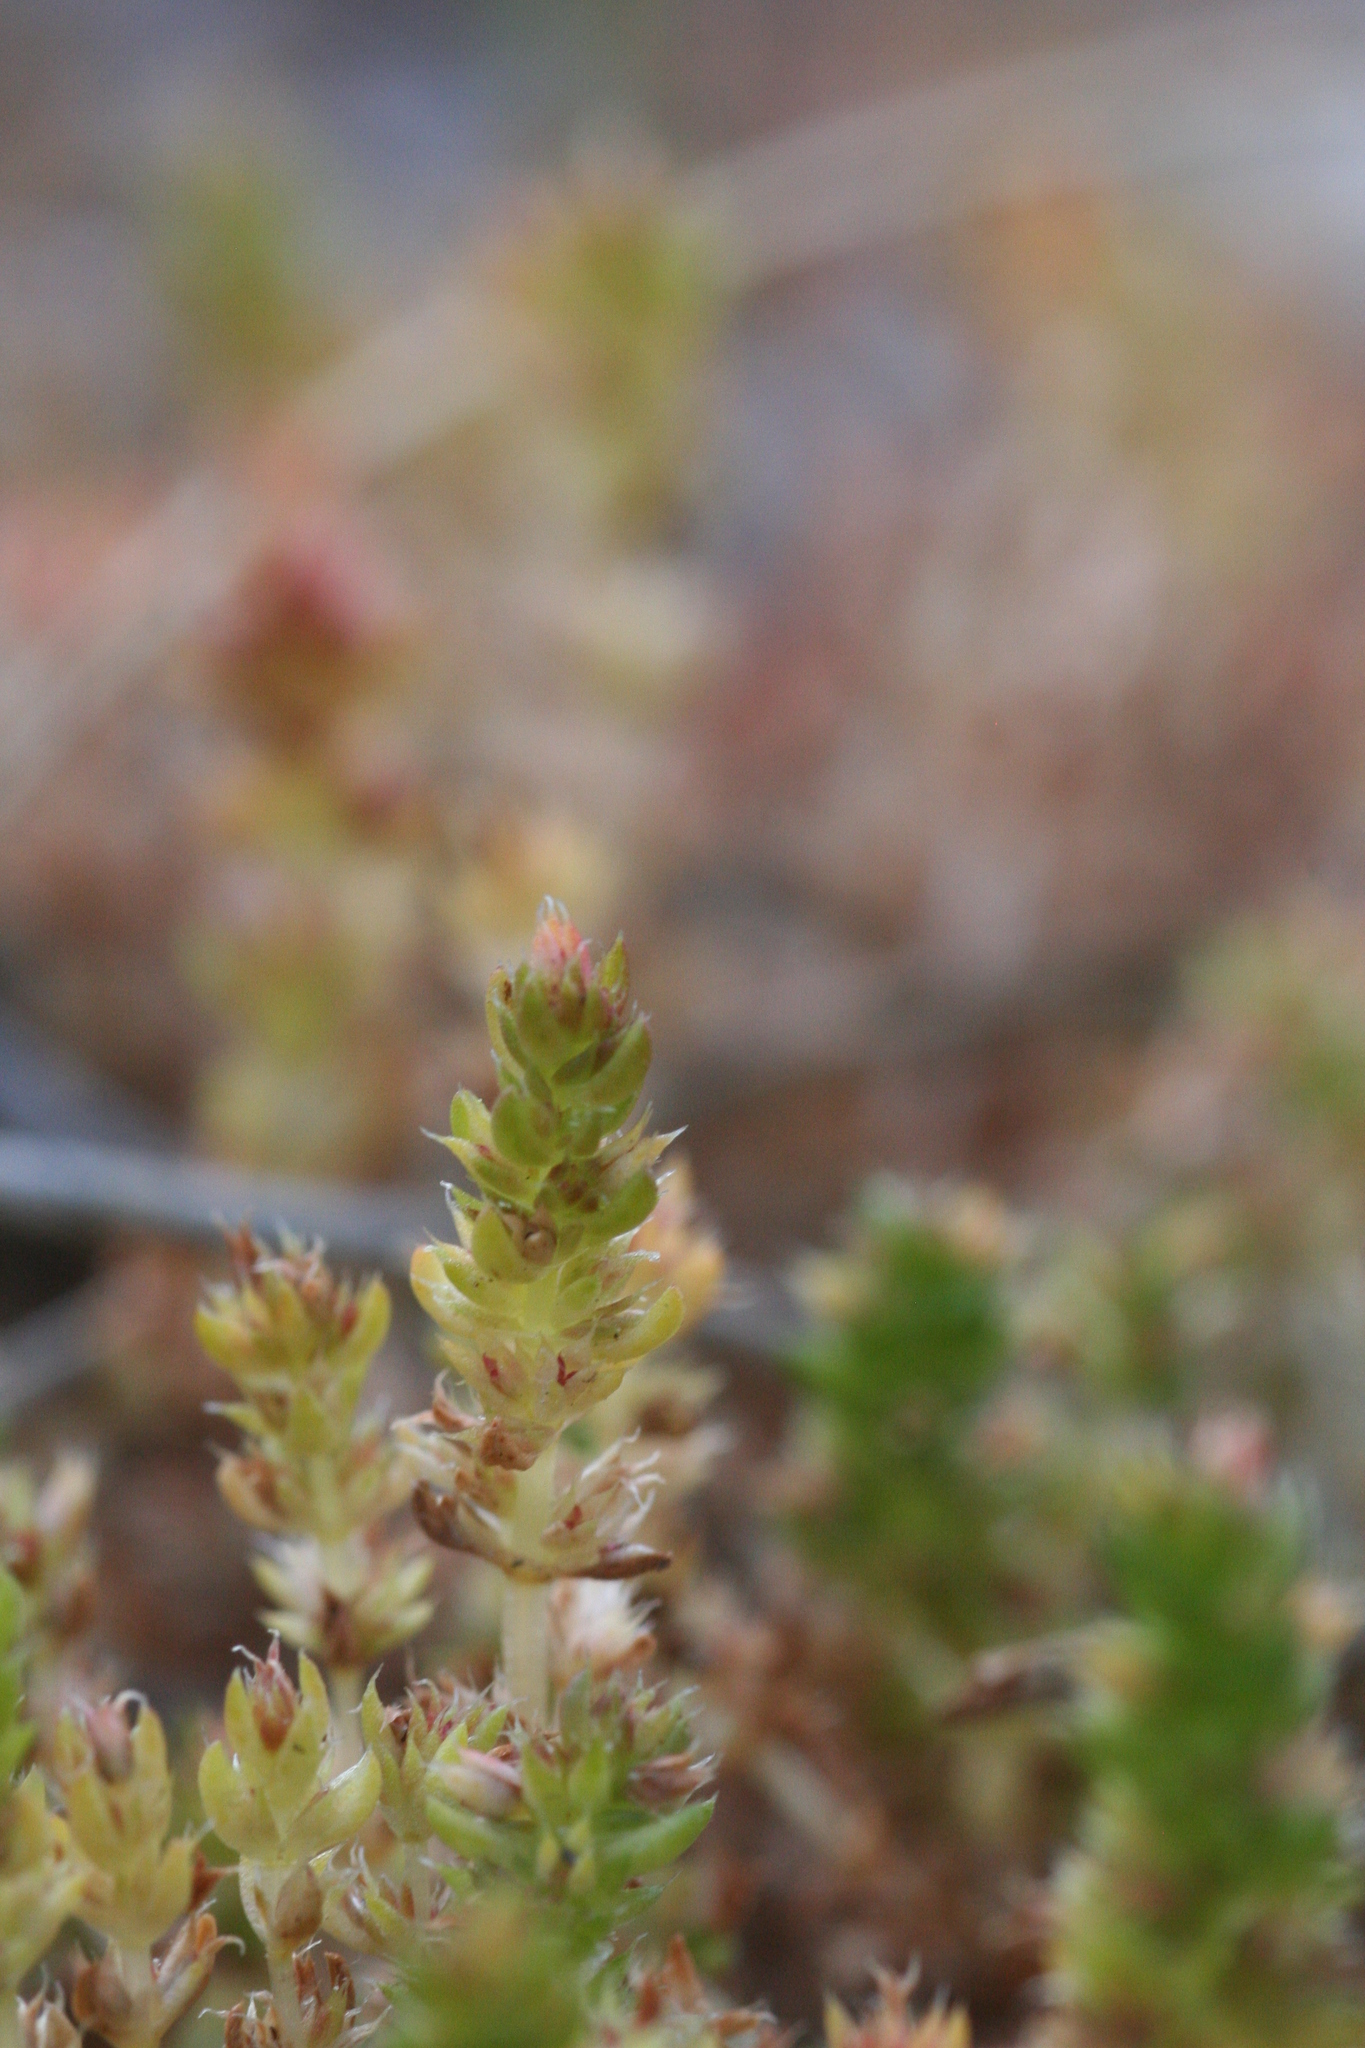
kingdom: Plantae
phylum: Tracheophyta
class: Magnoliopsida
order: Saxifragales
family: Crassulaceae
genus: Crassula
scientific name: Crassula connata
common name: Erect pygmyweed
